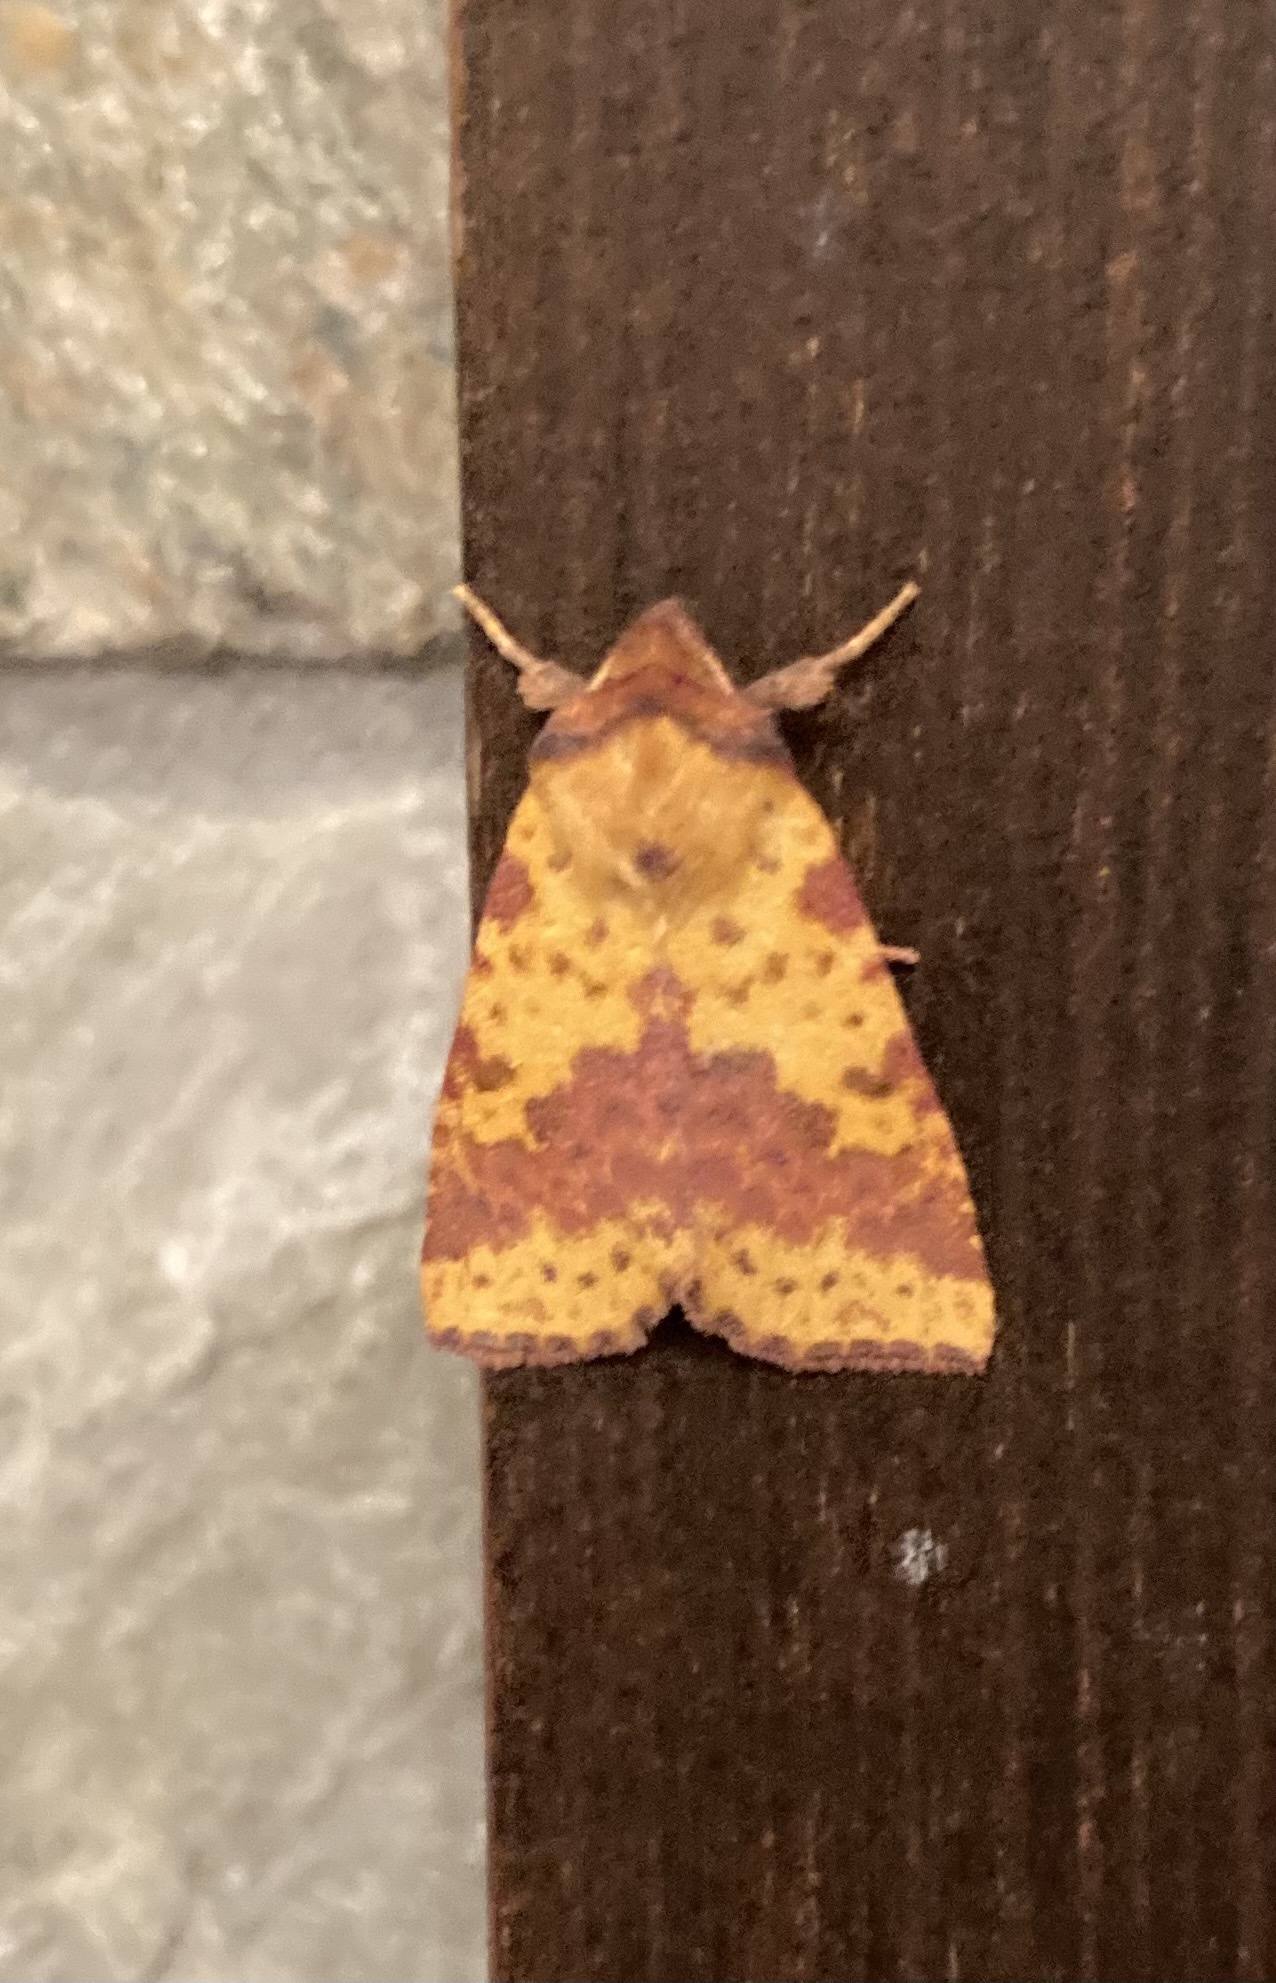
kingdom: Animalia
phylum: Arthropoda
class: Insecta
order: Lepidoptera
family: Noctuidae
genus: Xanthia
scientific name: Xanthia togata
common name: Pink-barred sallow
